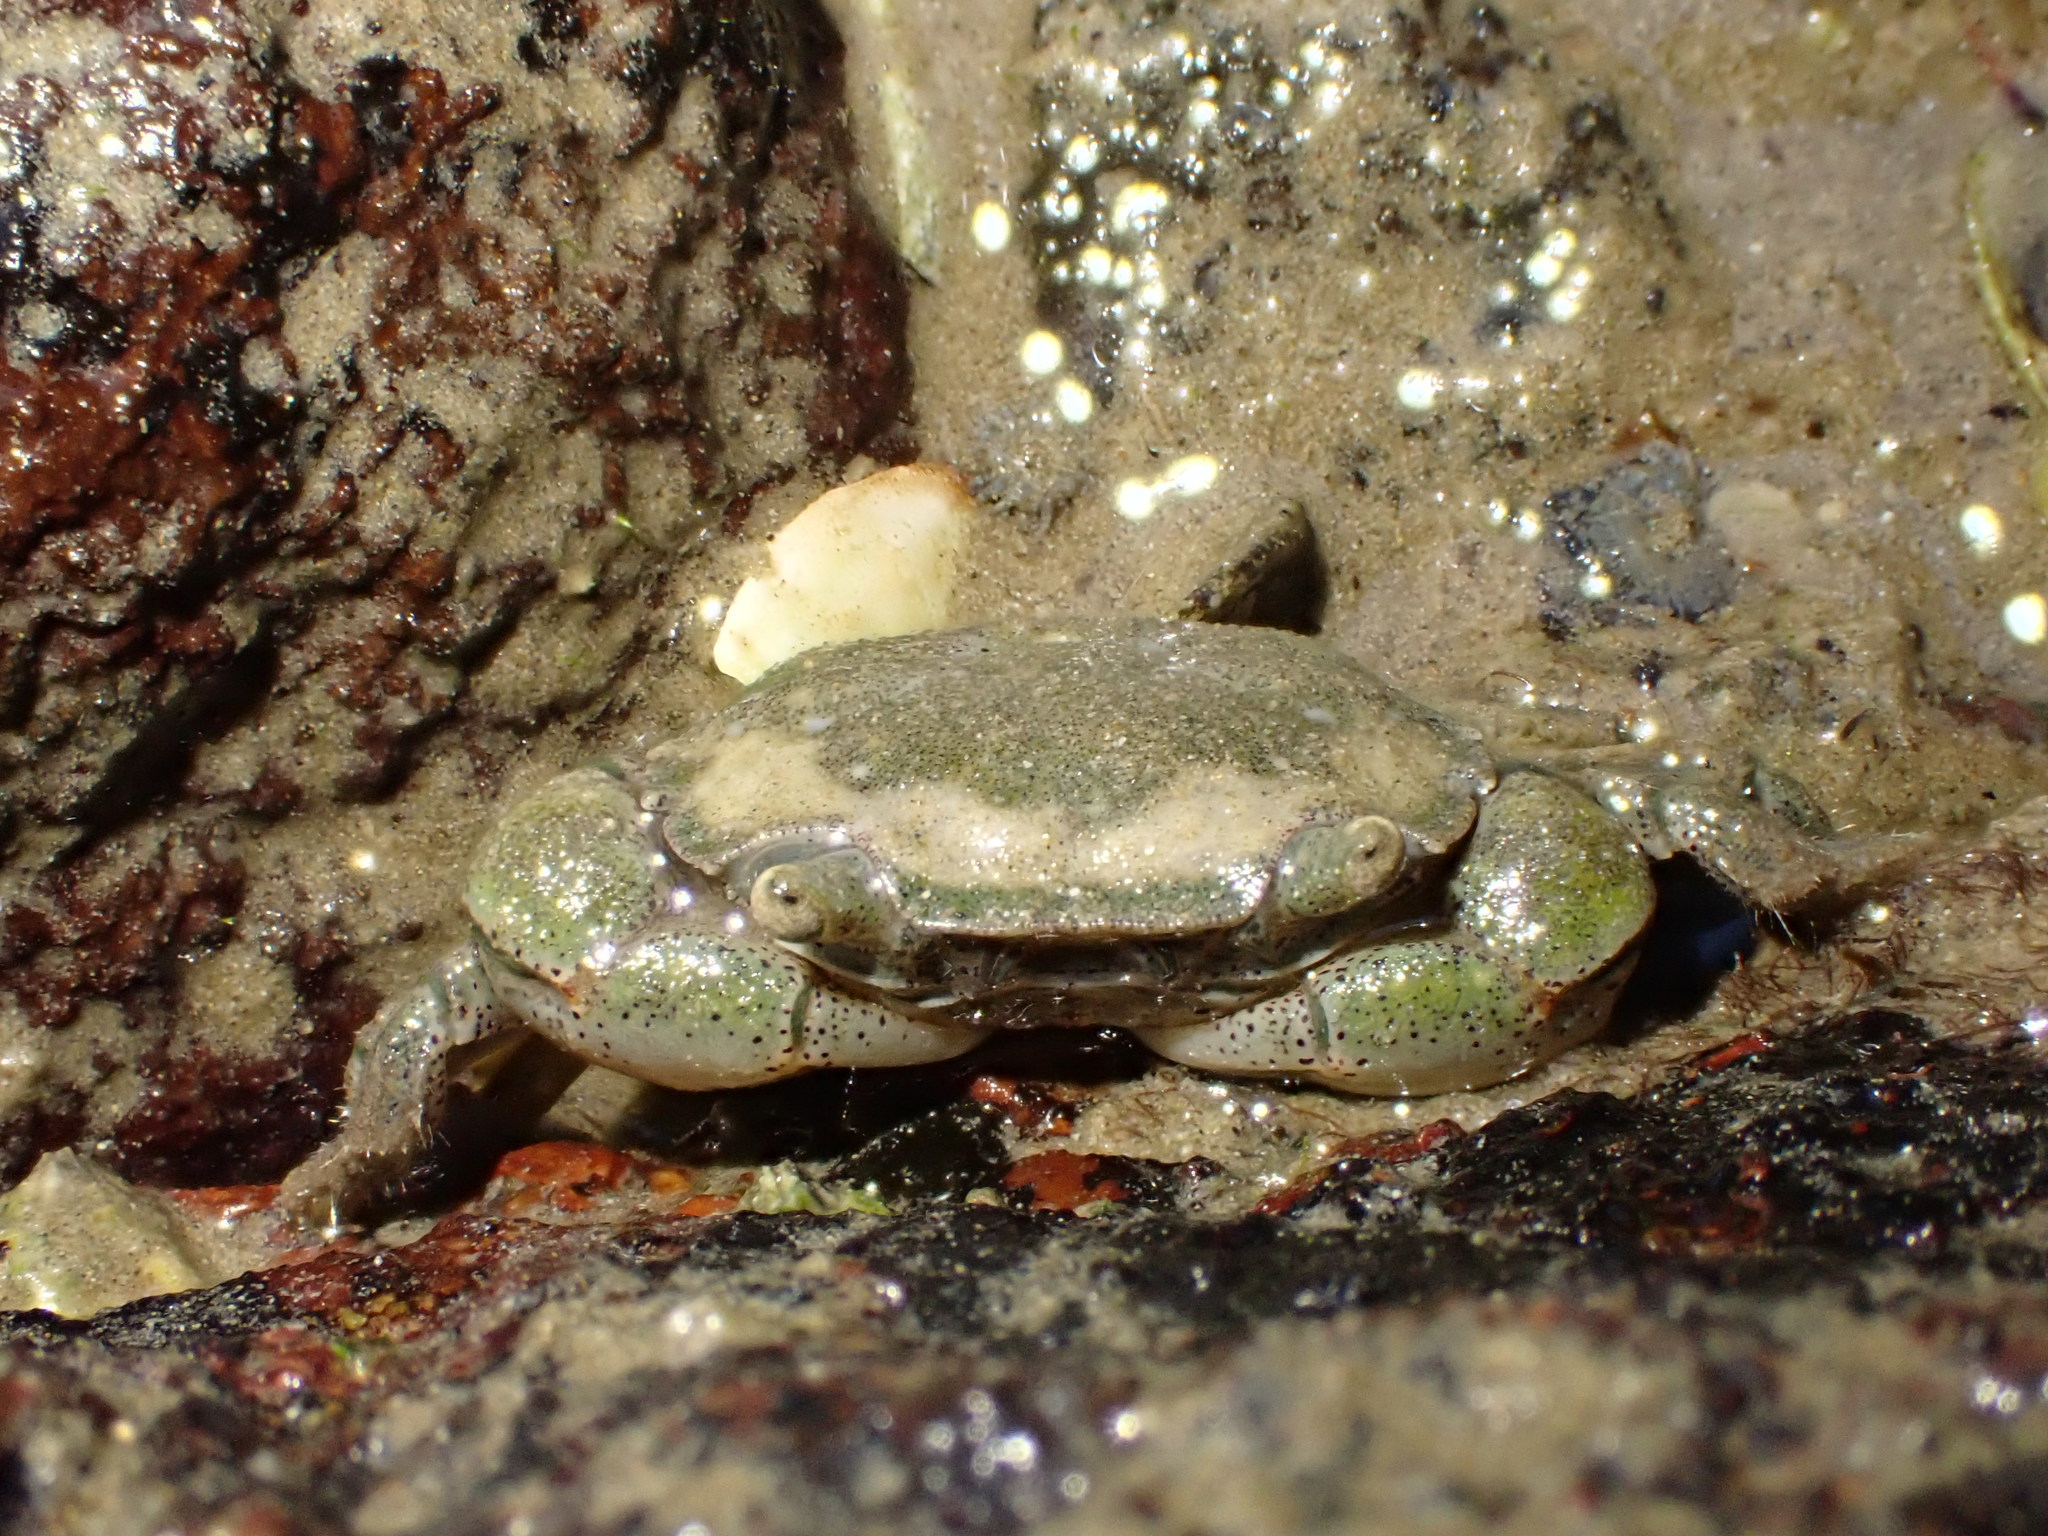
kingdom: Animalia
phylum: Mollusca
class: Gastropoda
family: Amphibolidae
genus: Amphibola
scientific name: Amphibola crenata
